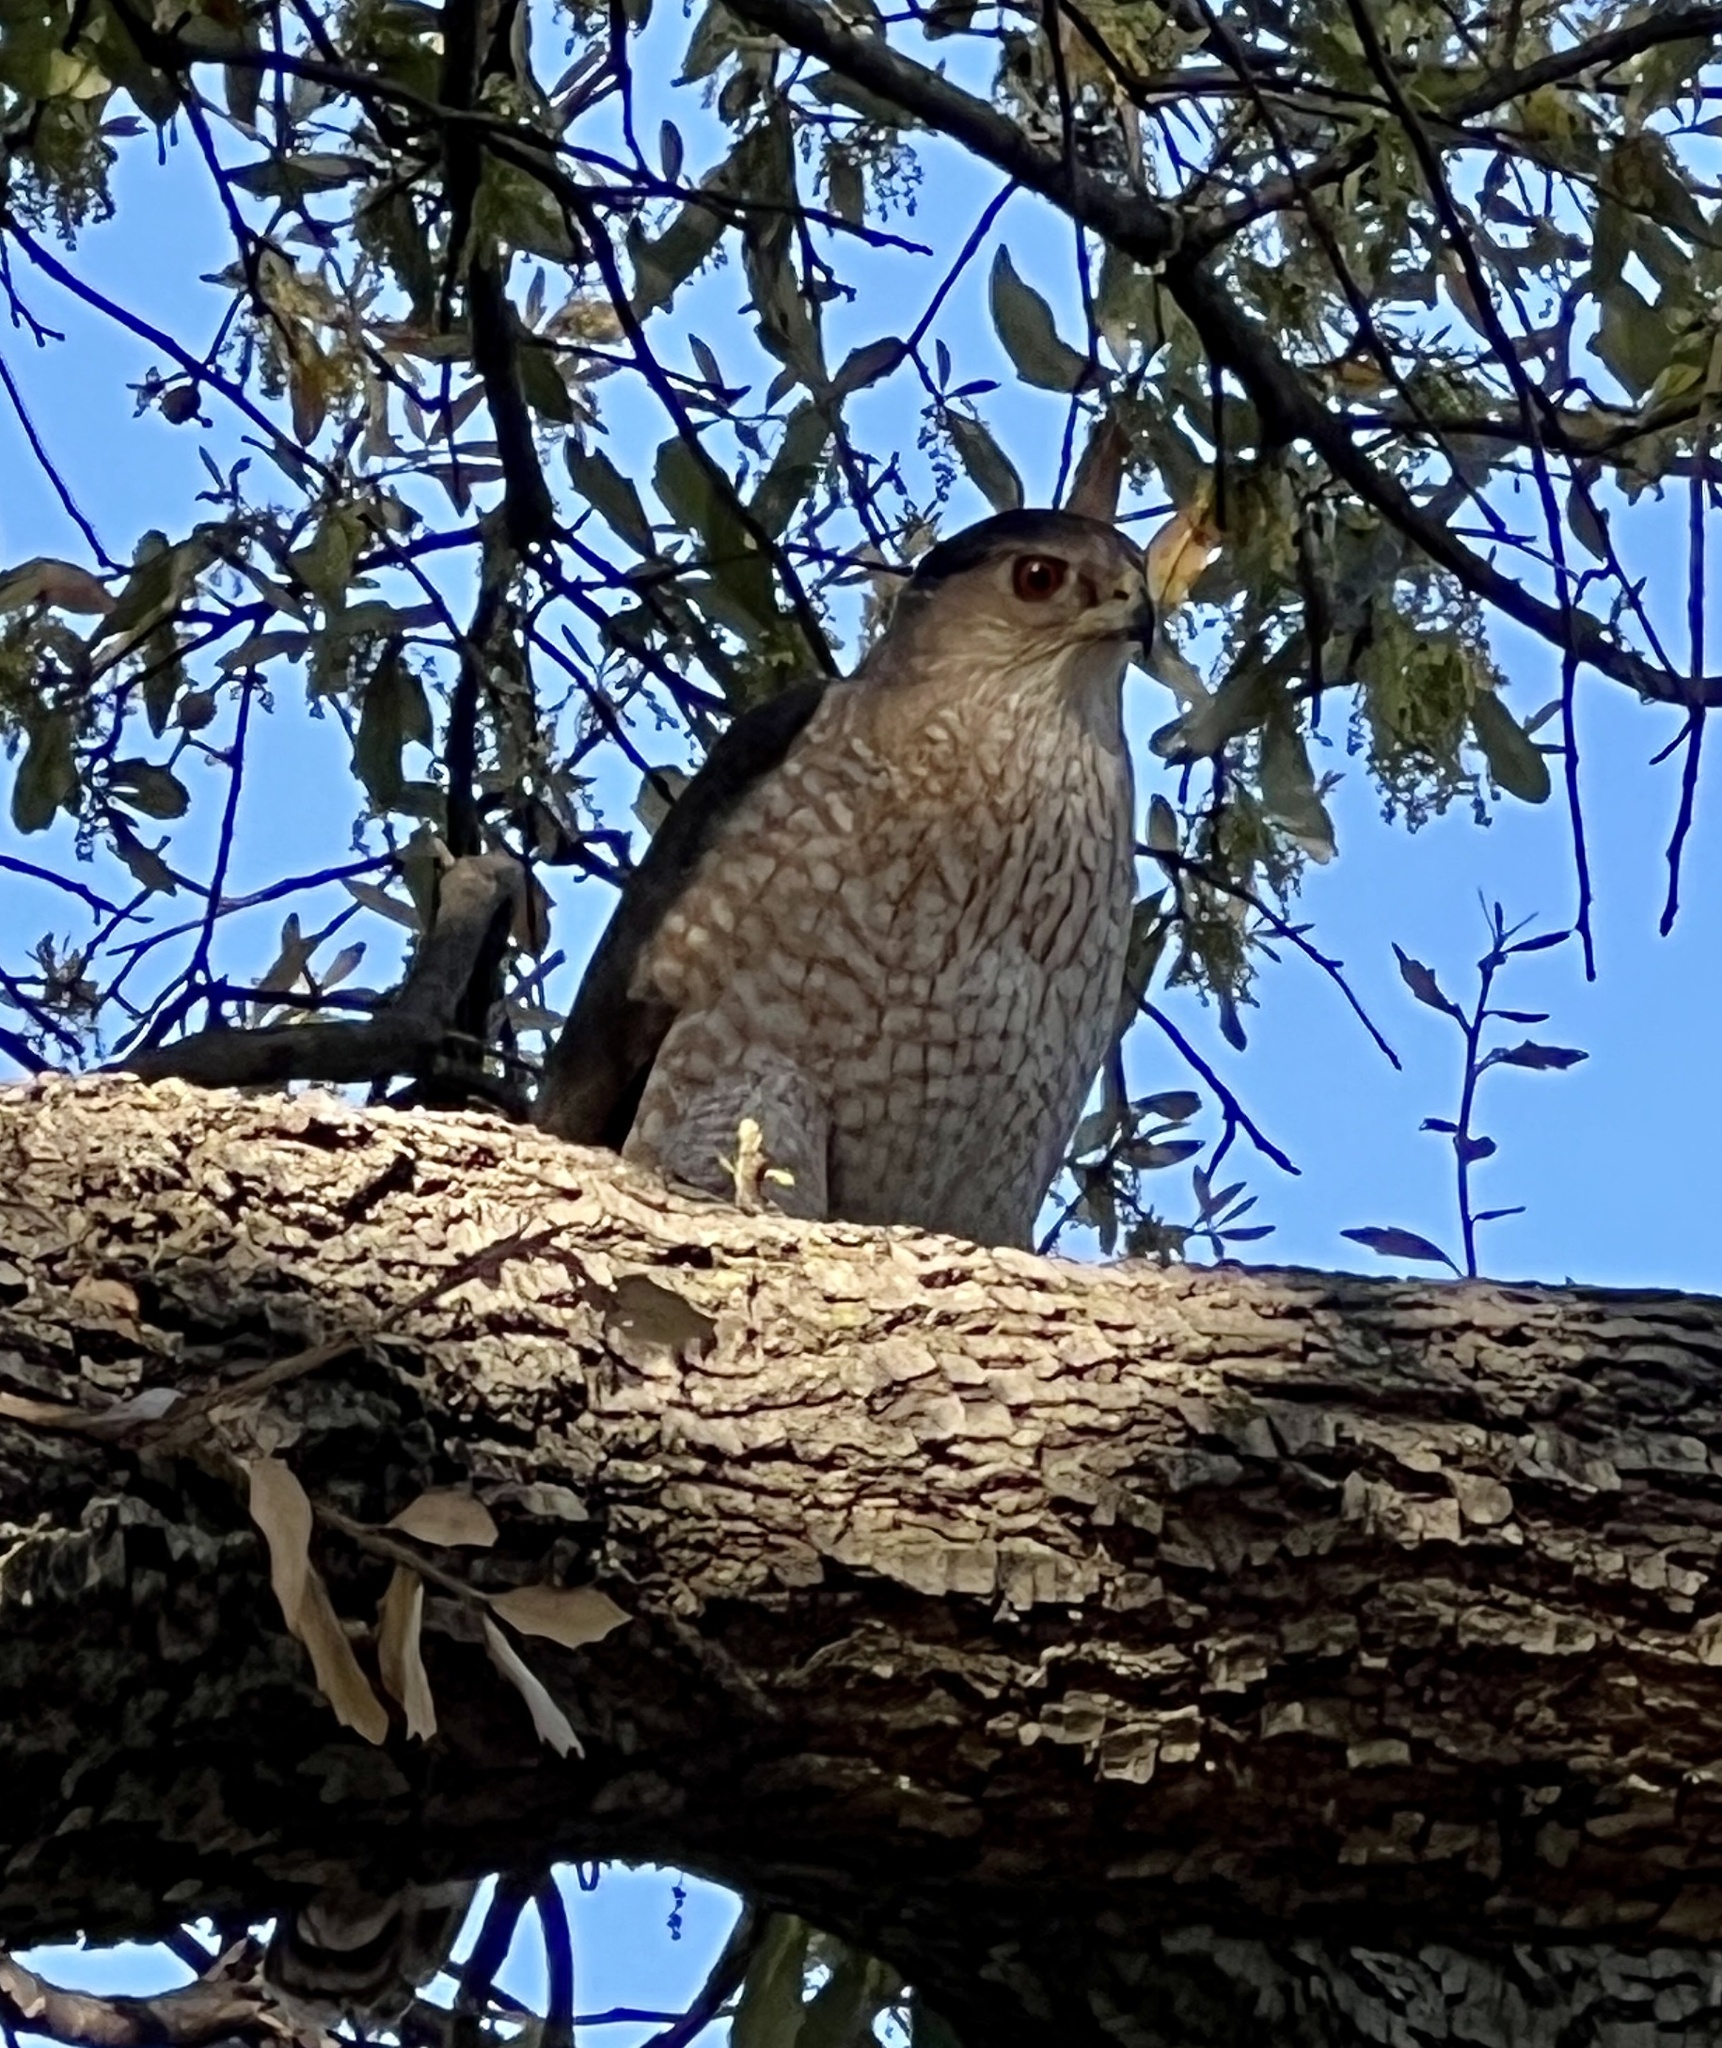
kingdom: Animalia
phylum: Chordata
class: Aves
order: Accipitriformes
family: Accipitridae
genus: Accipiter
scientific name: Accipiter cooperii
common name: Cooper's hawk
